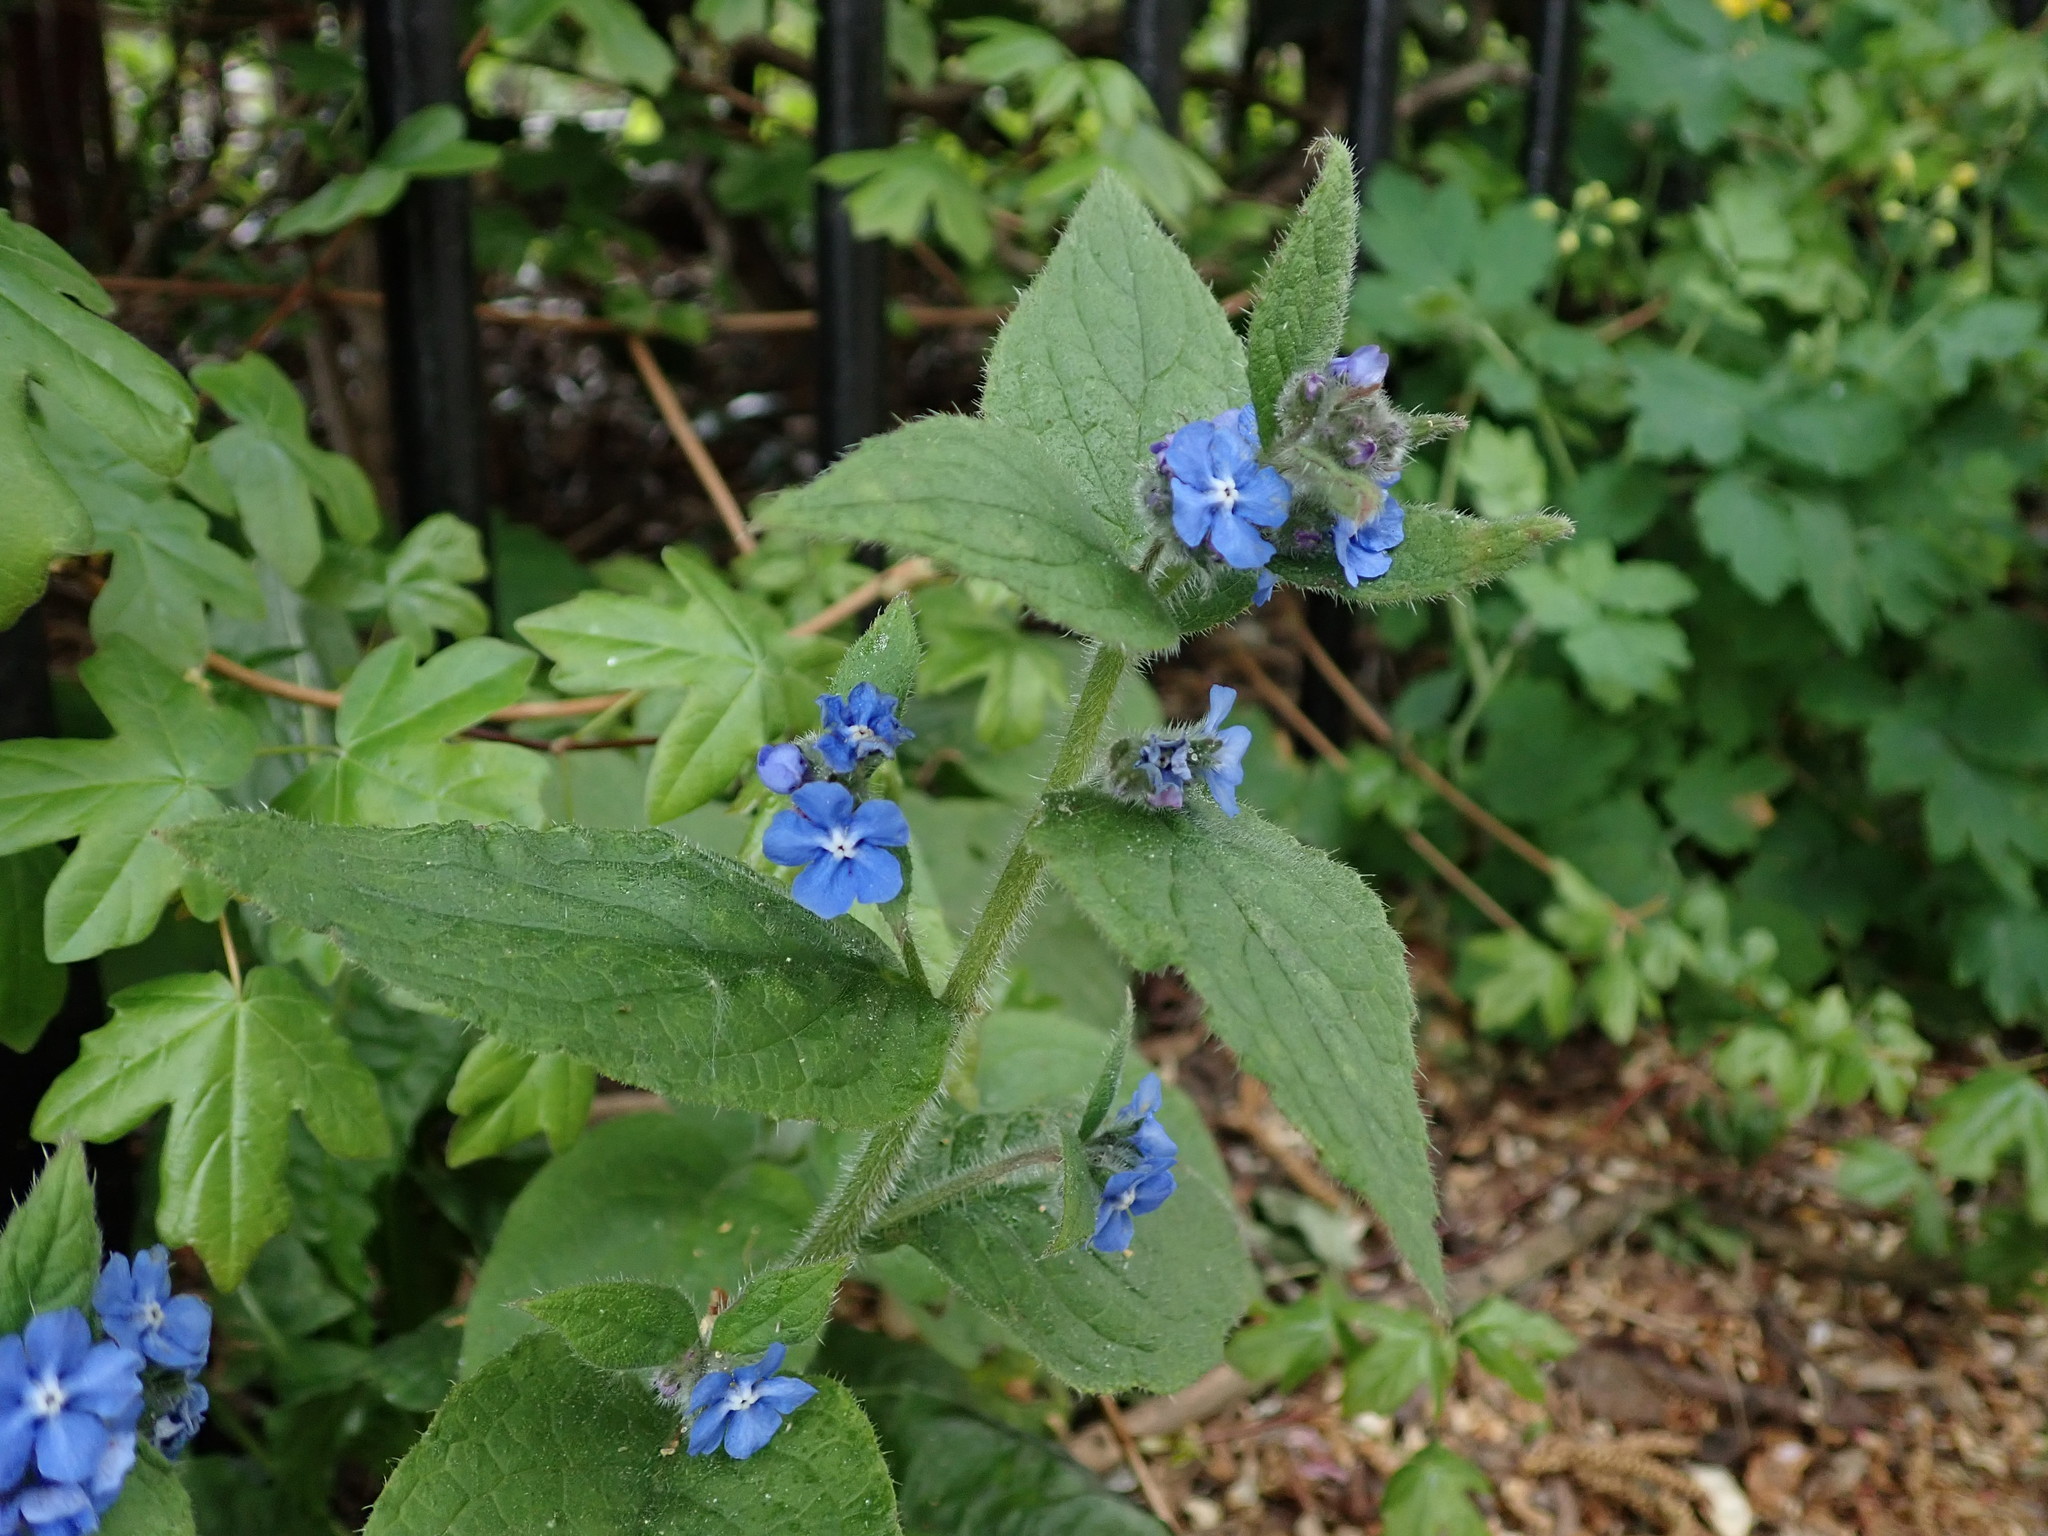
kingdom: Plantae
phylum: Tracheophyta
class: Magnoliopsida
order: Boraginales
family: Boraginaceae
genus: Pentaglottis
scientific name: Pentaglottis sempervirens
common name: Green alkanet
